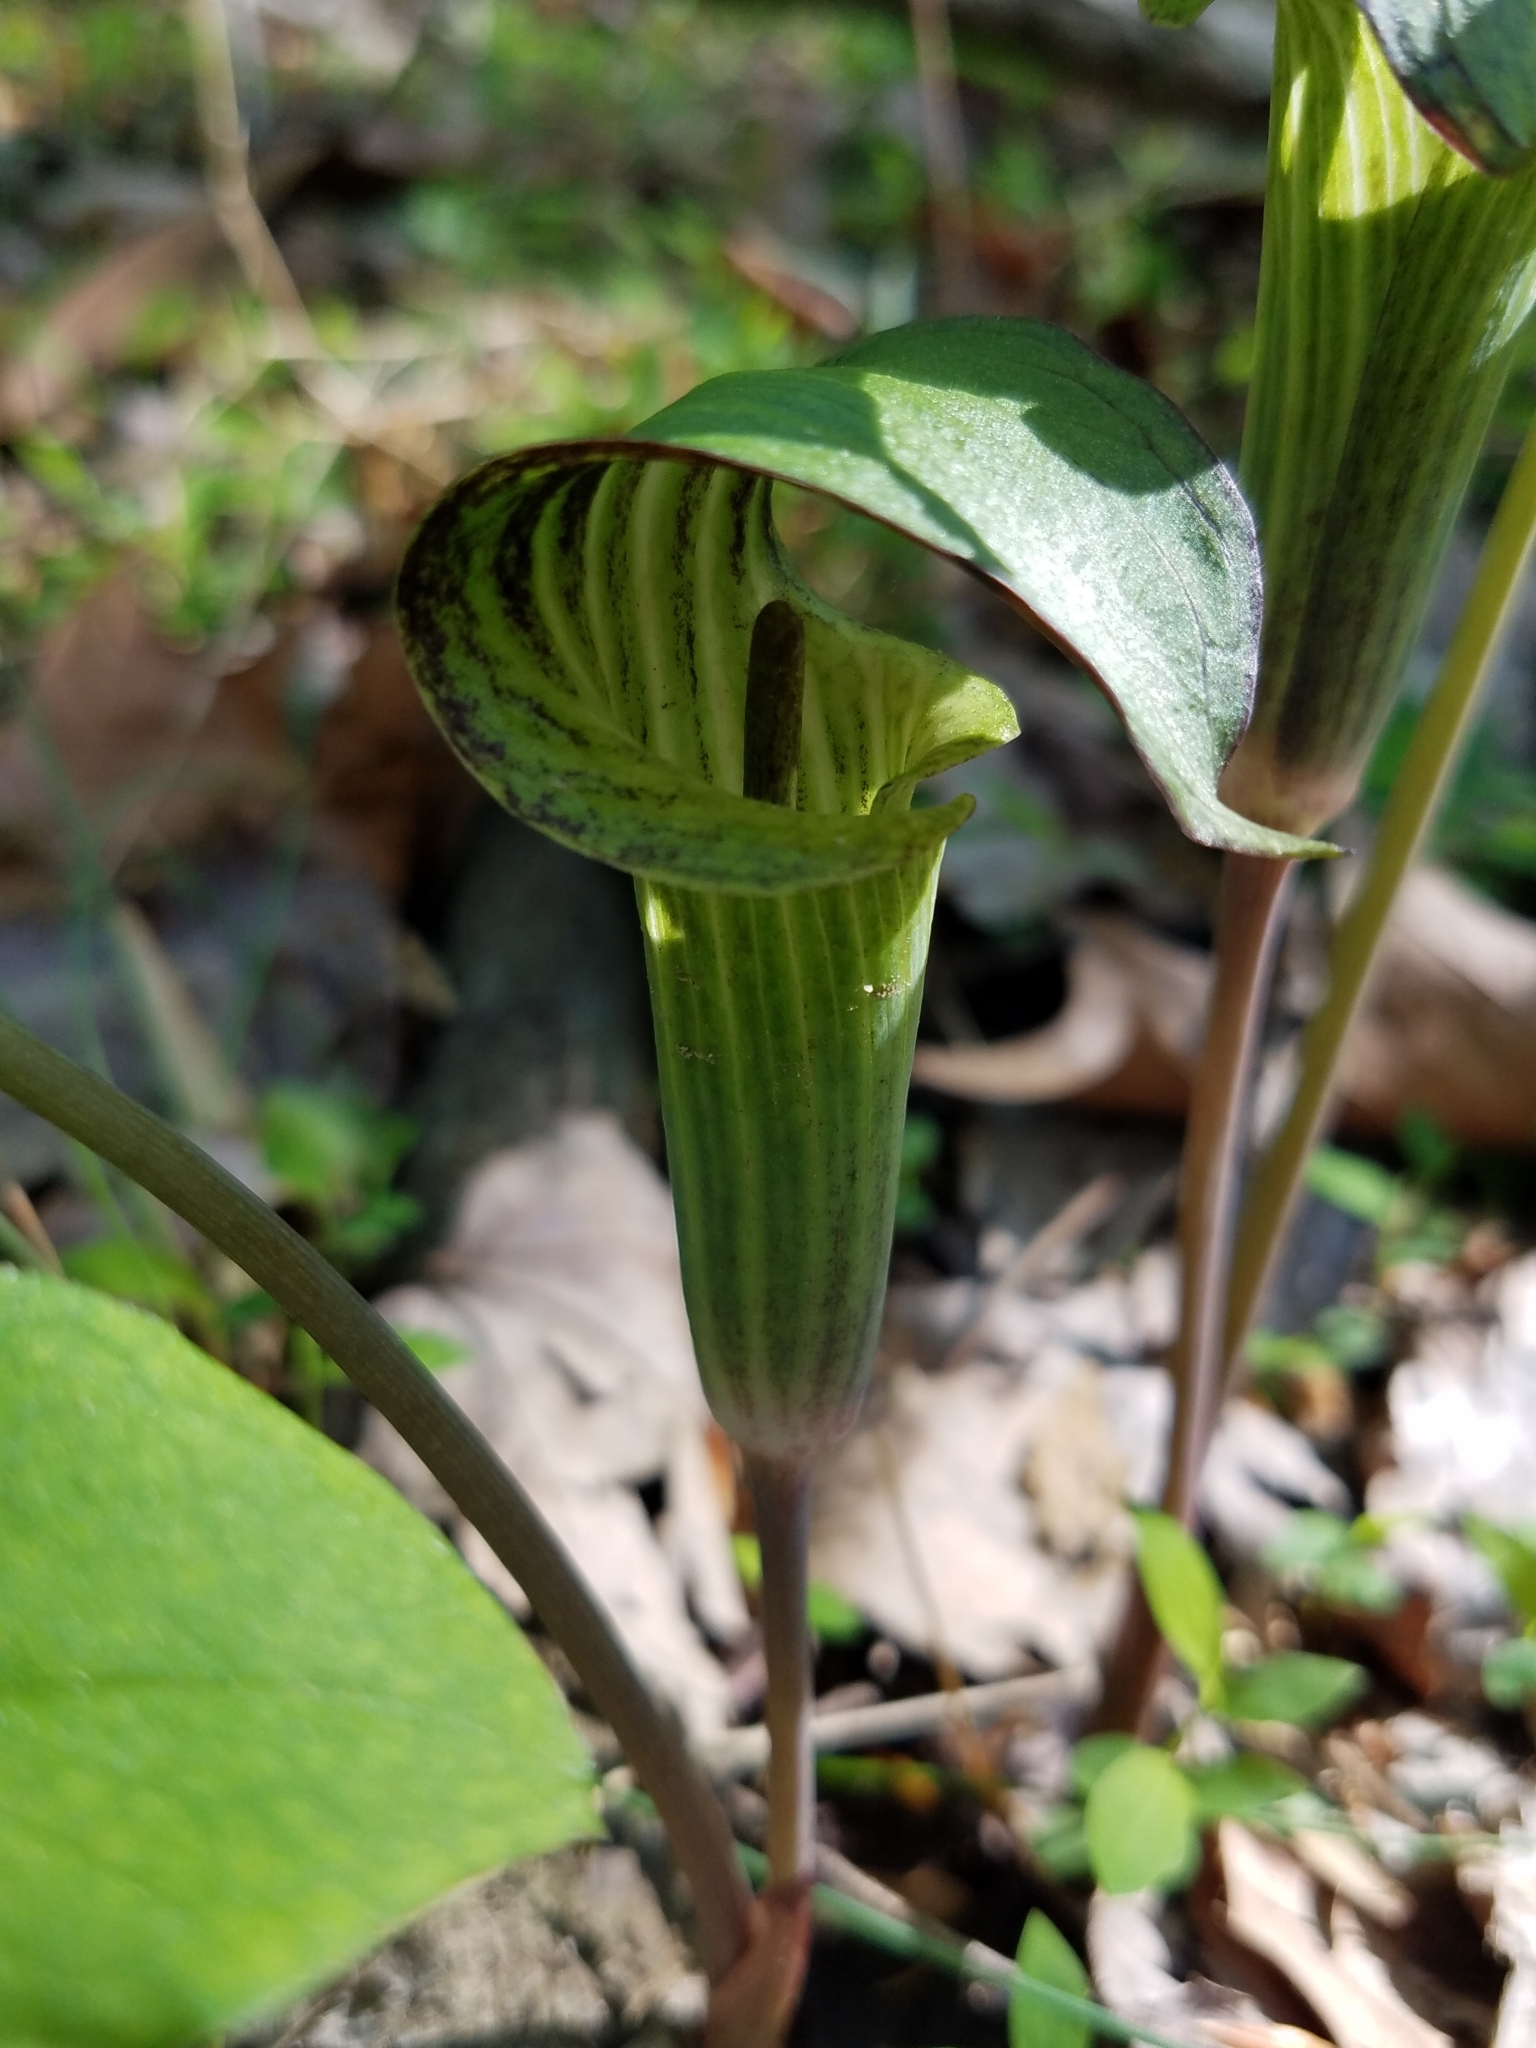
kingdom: Plantae
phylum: Tracheophyta
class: Liliopsida
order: Alismatales
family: Araceae
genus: Arisaema
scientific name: Arisaema triphyllum
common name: Jack-in-the-pulpit
